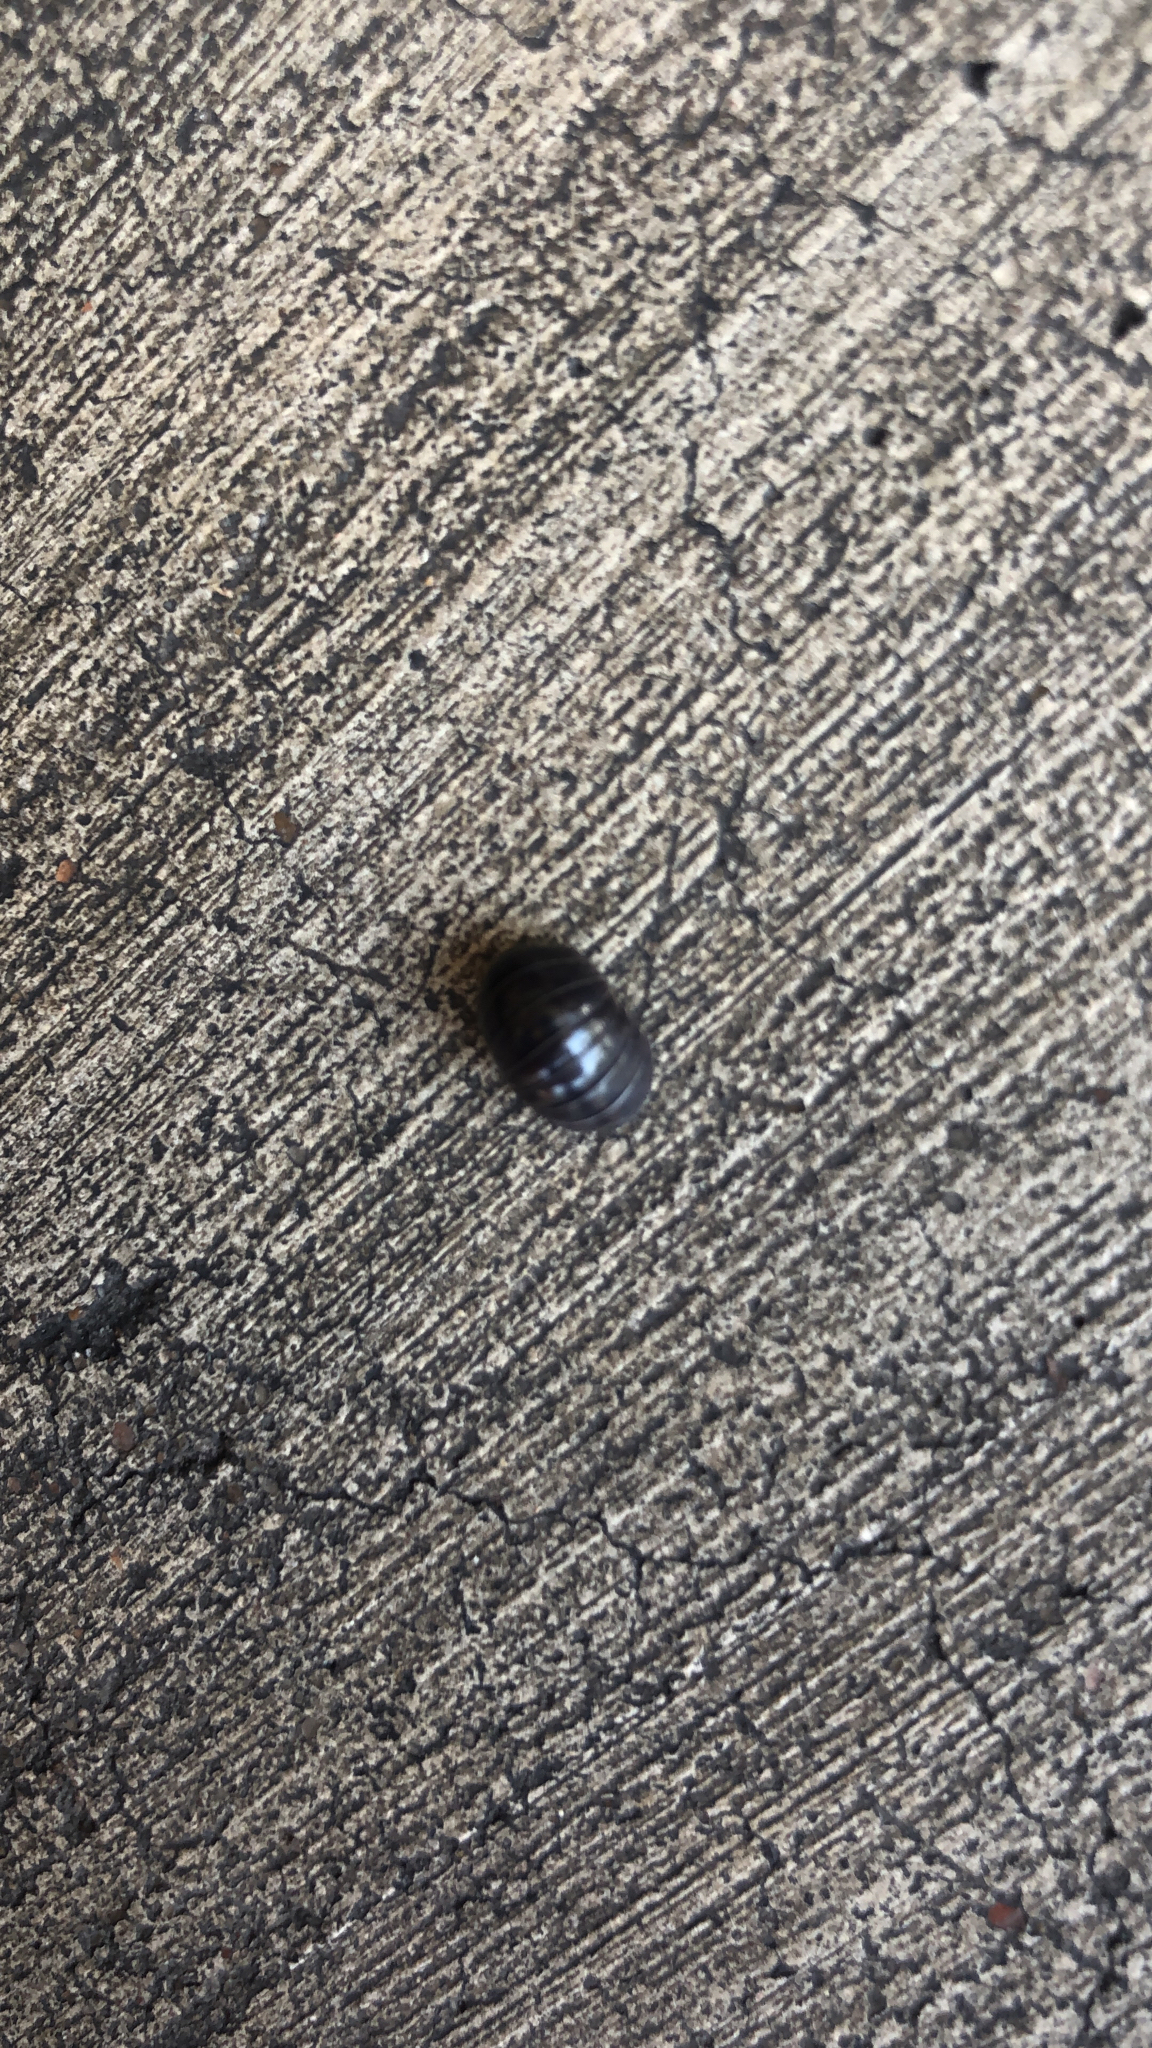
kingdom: Animalia
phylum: Arthropoda
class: Malacostraca
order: Isopoda
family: Armadillidiidae
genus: Armadillidium
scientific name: Armadillidium vulgare
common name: Common pill woodlouse
